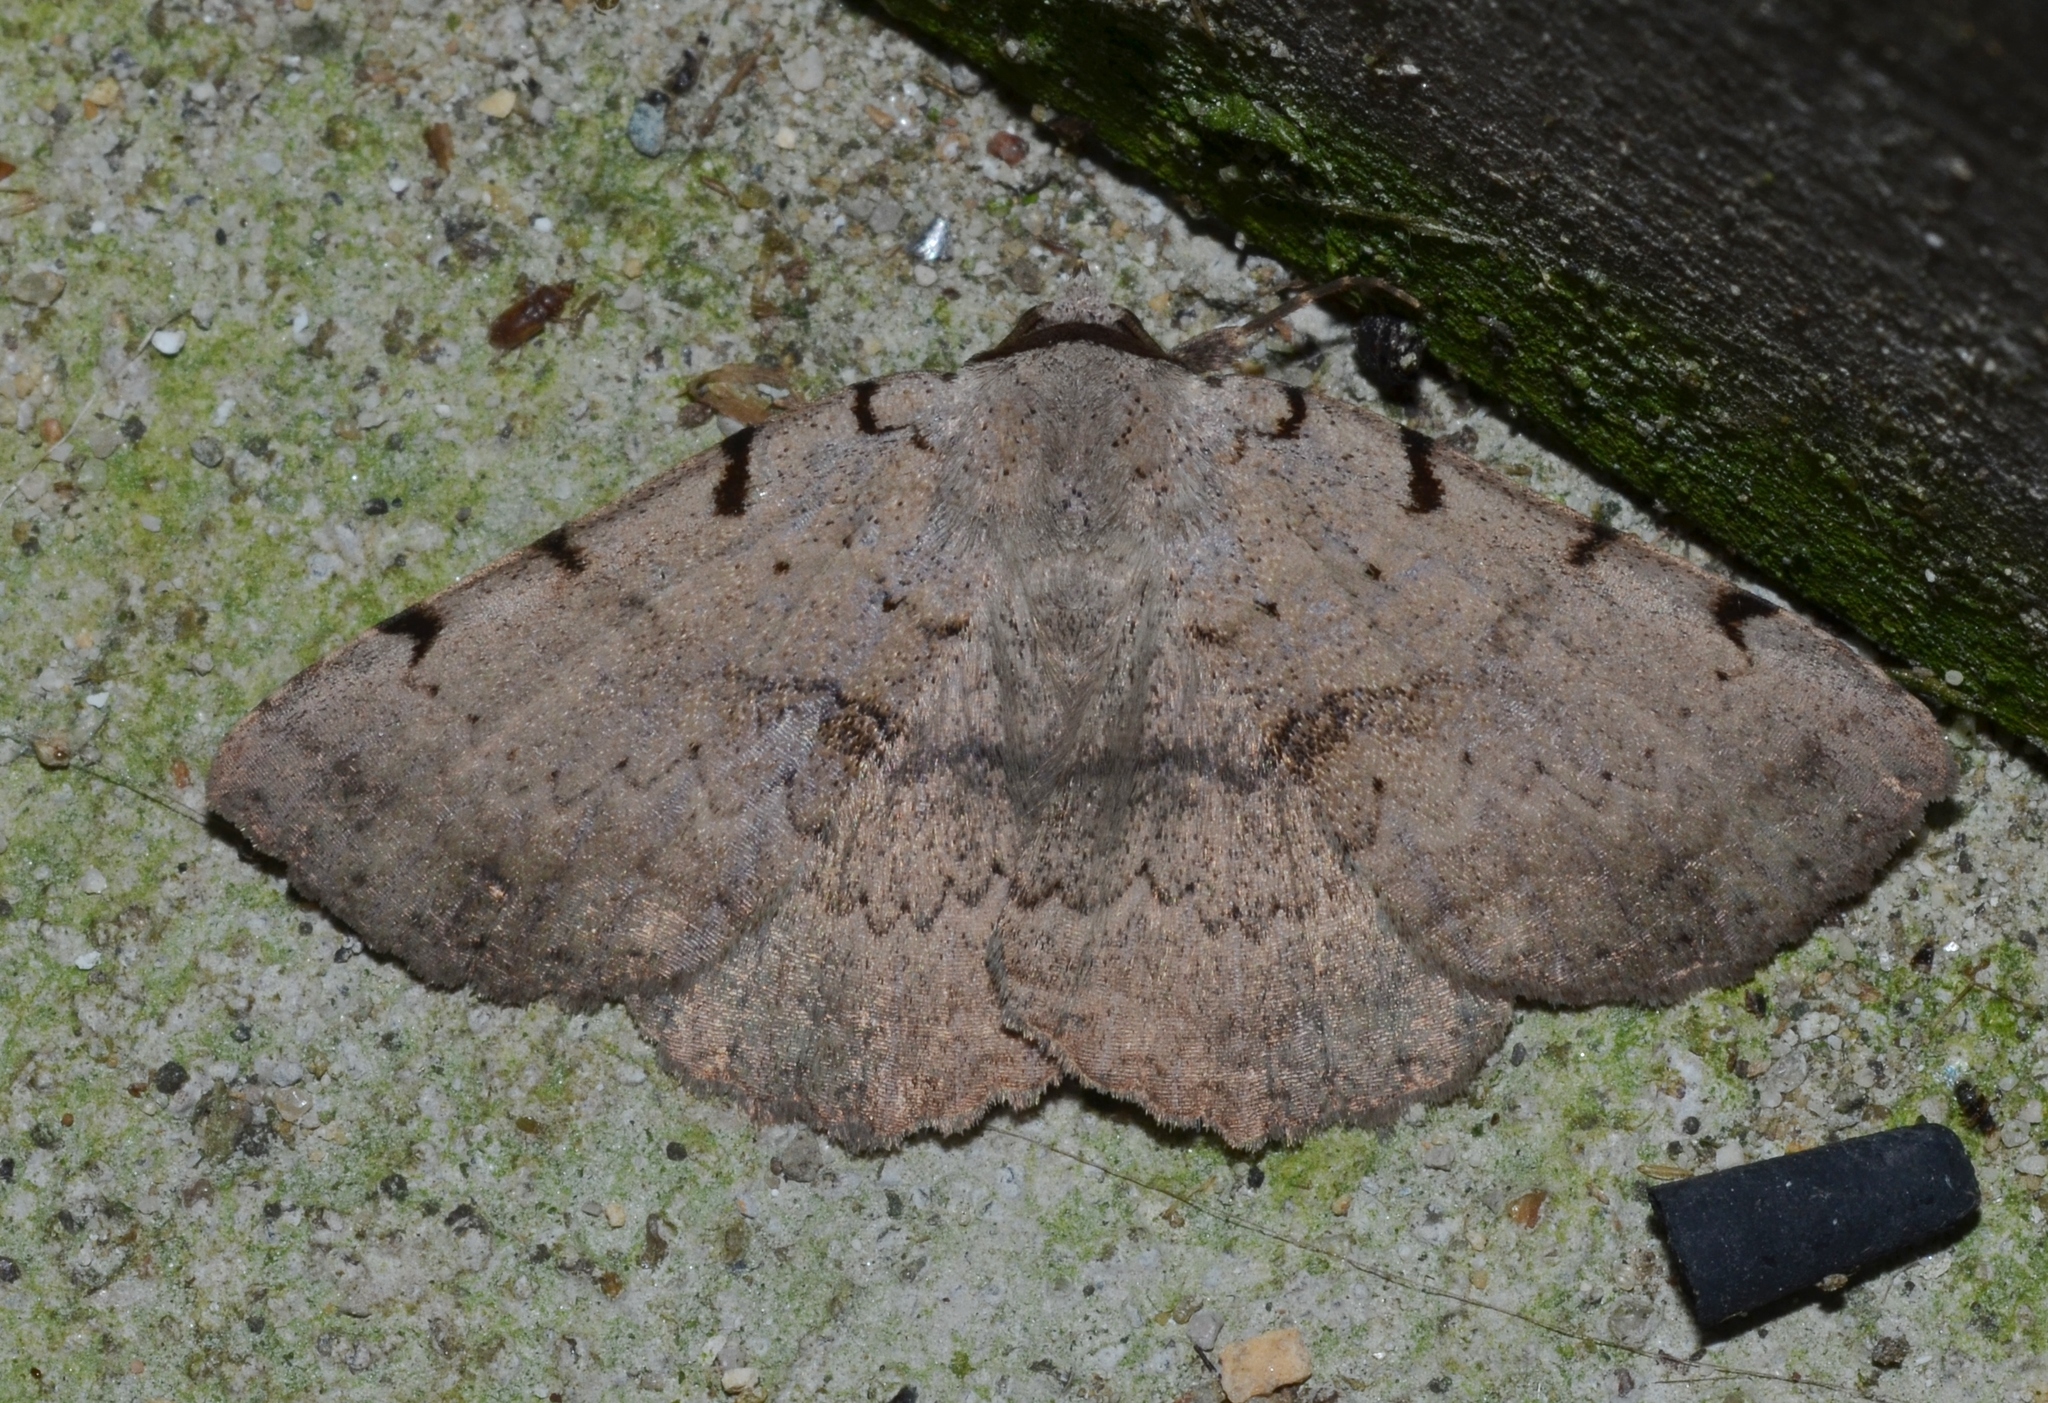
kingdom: Animalia
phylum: Arthropoda
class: Insecta
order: Lepidoptera
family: Erebidae
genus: Spiloloma
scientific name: Spiloloma lunilinea
